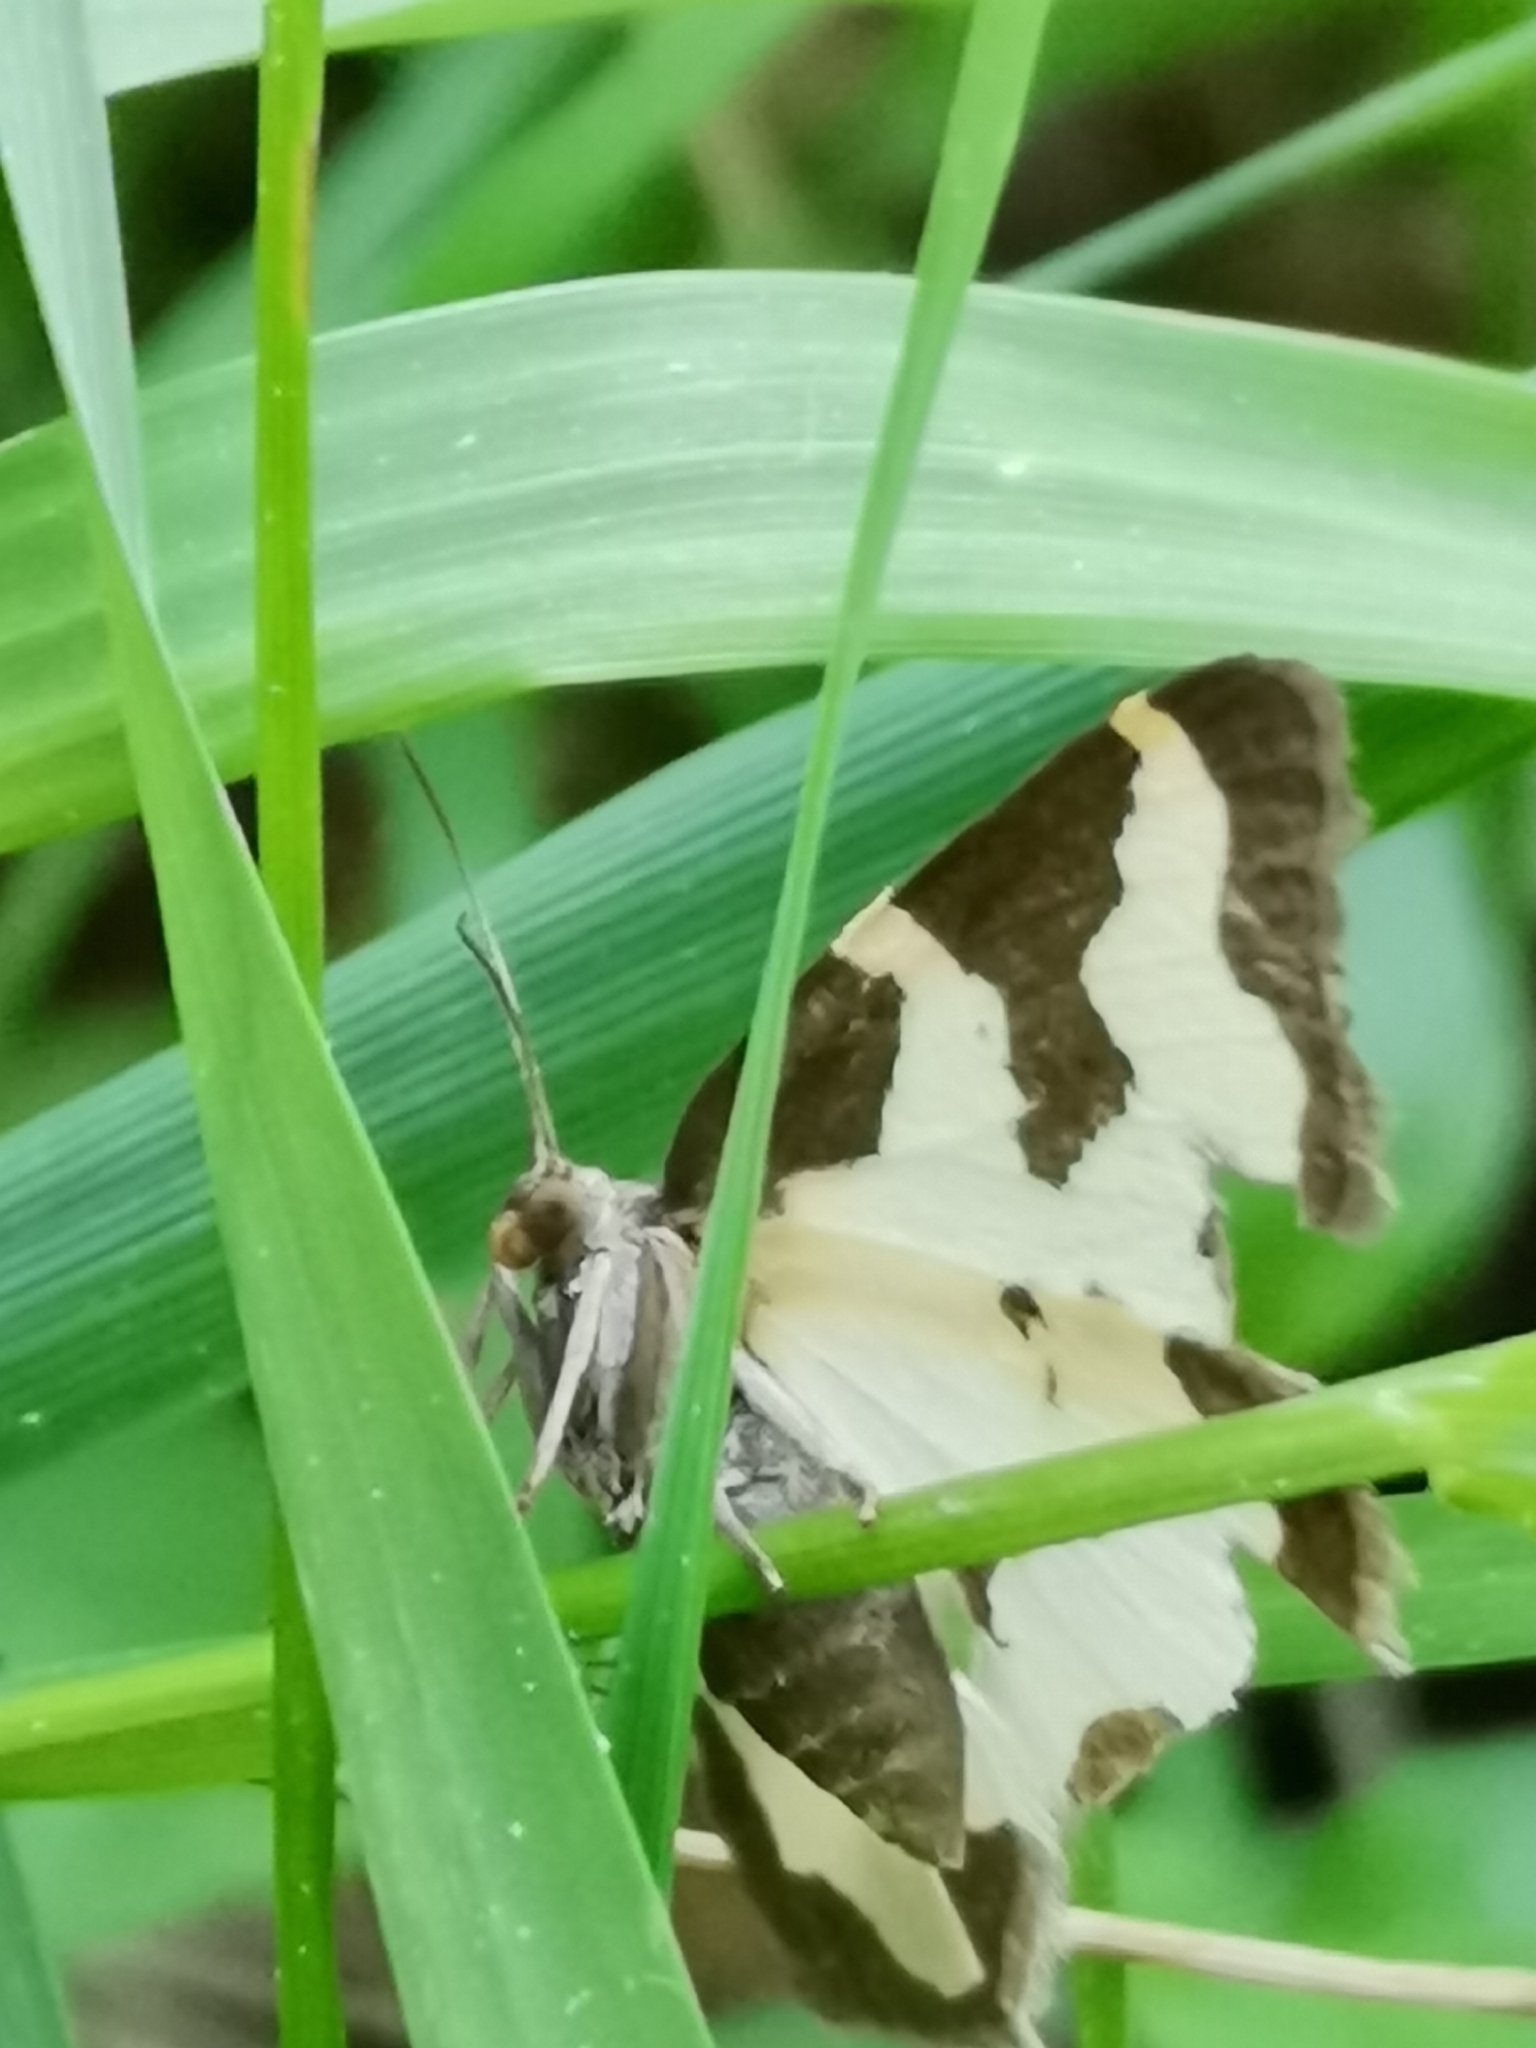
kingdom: Animalia
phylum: Arthropoda
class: Insecta
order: Lepidoptera
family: Geometridae
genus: Lomaspilis
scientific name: Lomaspilis marginata
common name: Clouded border
